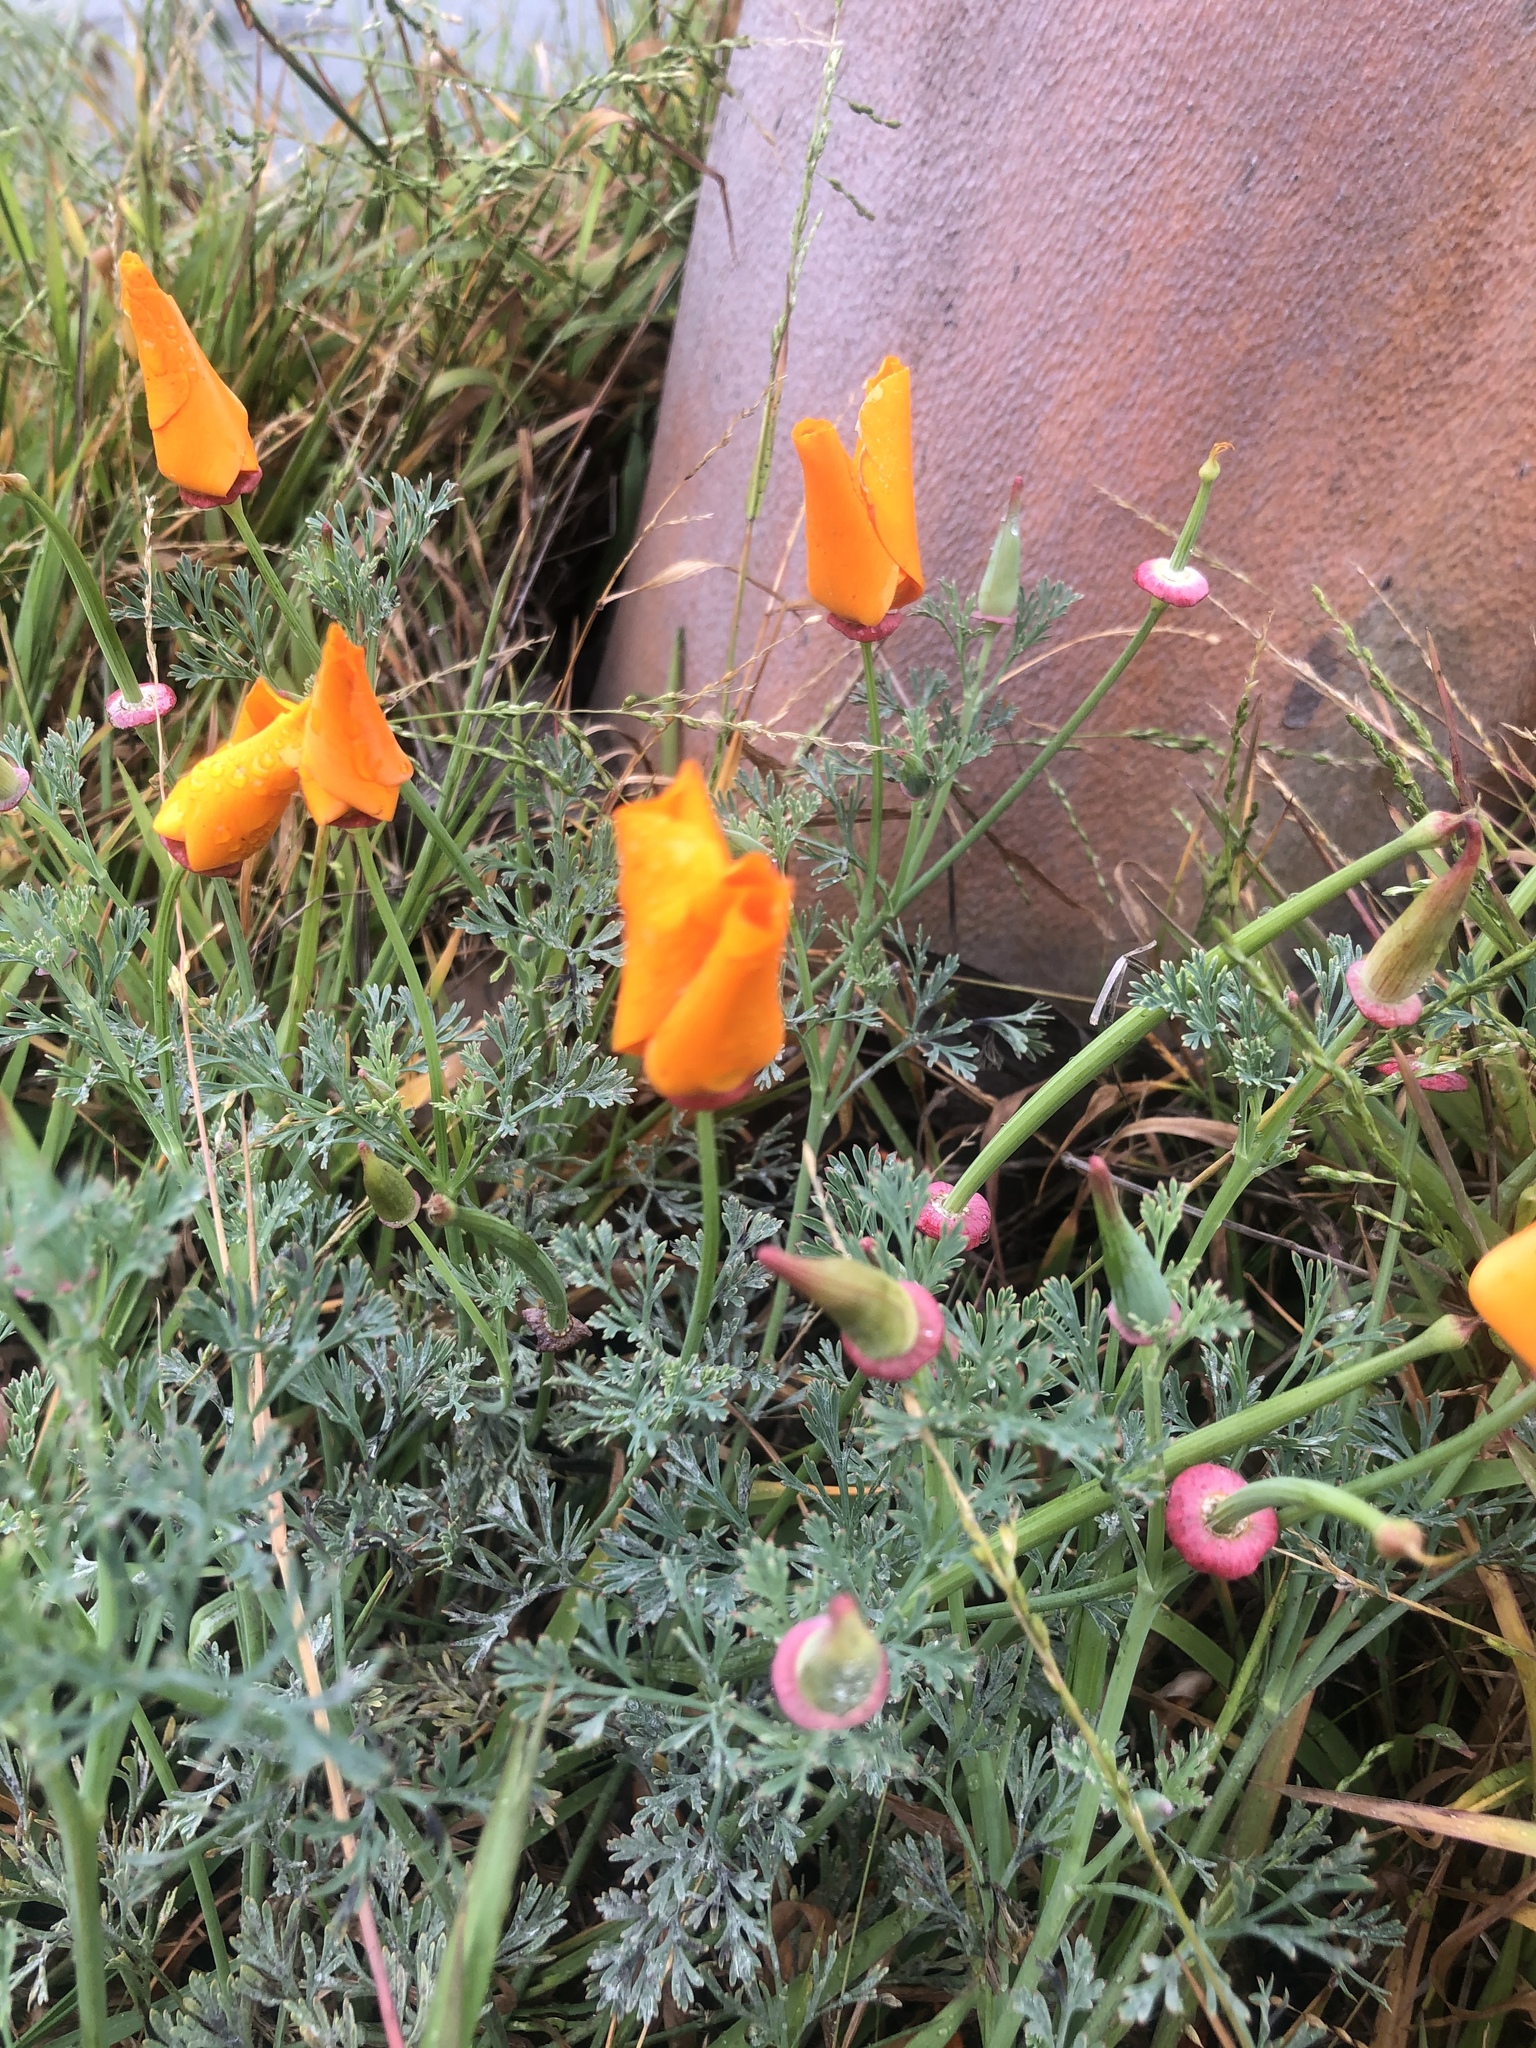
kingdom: Plantae
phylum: Tracheophyta
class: Magnoliopsida
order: Ranunculales
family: Papaveraceae
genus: Eschscholzia
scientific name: Eschscholzia californica
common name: California poppy
